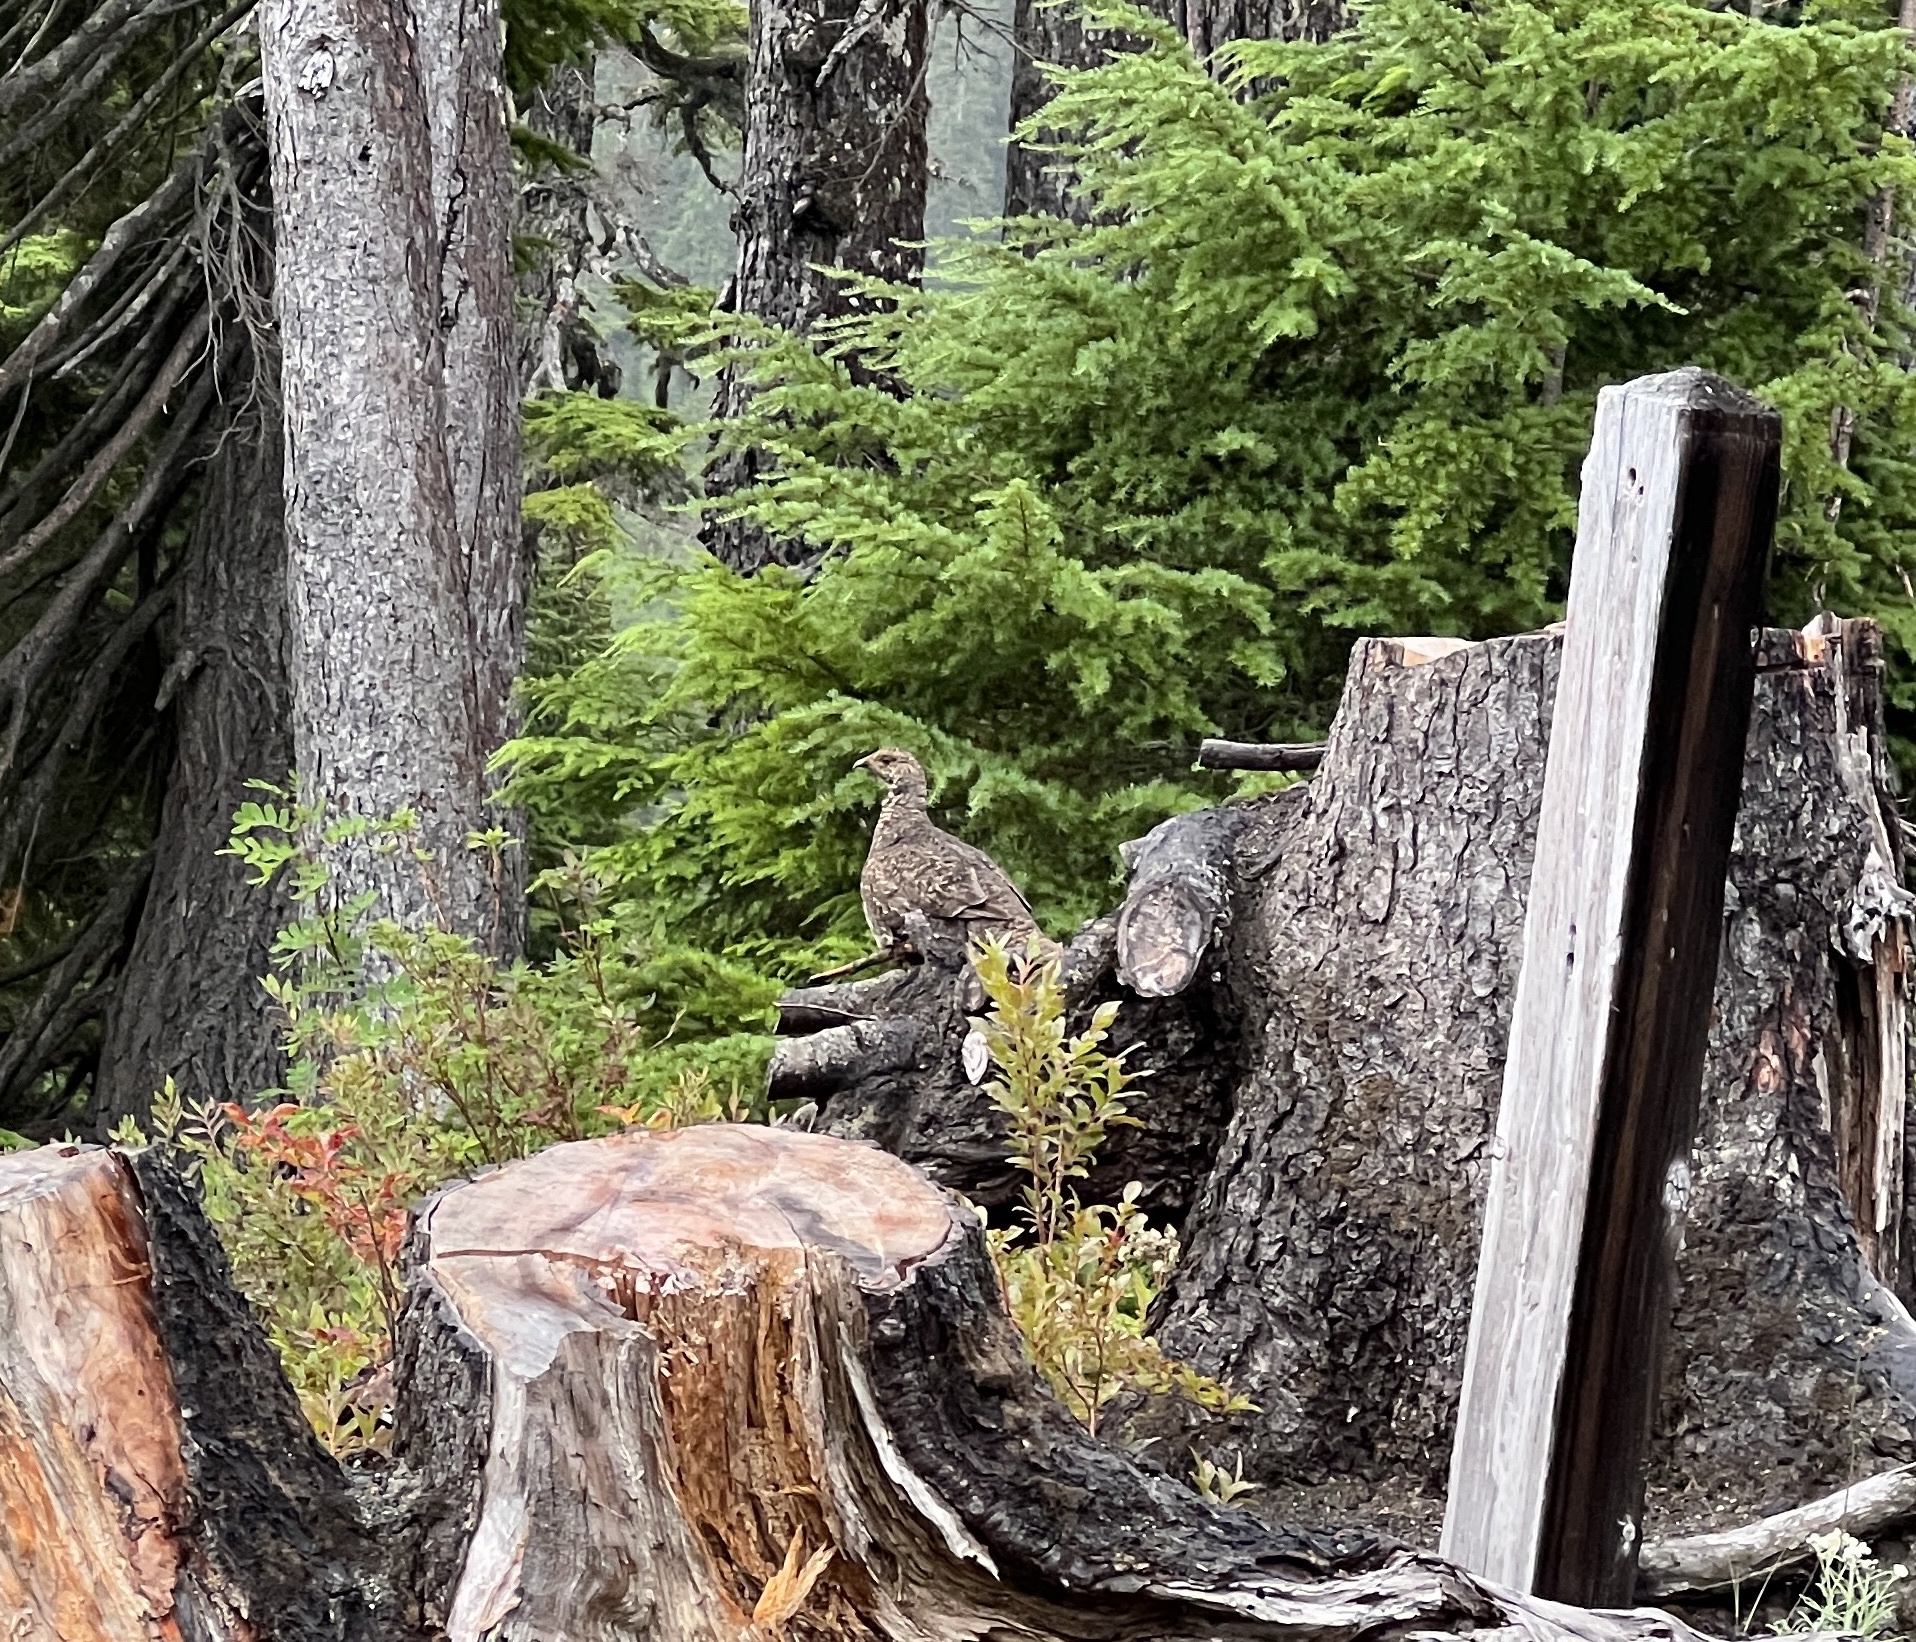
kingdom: Animalia
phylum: Chordata
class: Aves
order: Galliformes
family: Phasianidae
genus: Dendragapus
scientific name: Dendragapus fuliginosus
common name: Sooty grouse
